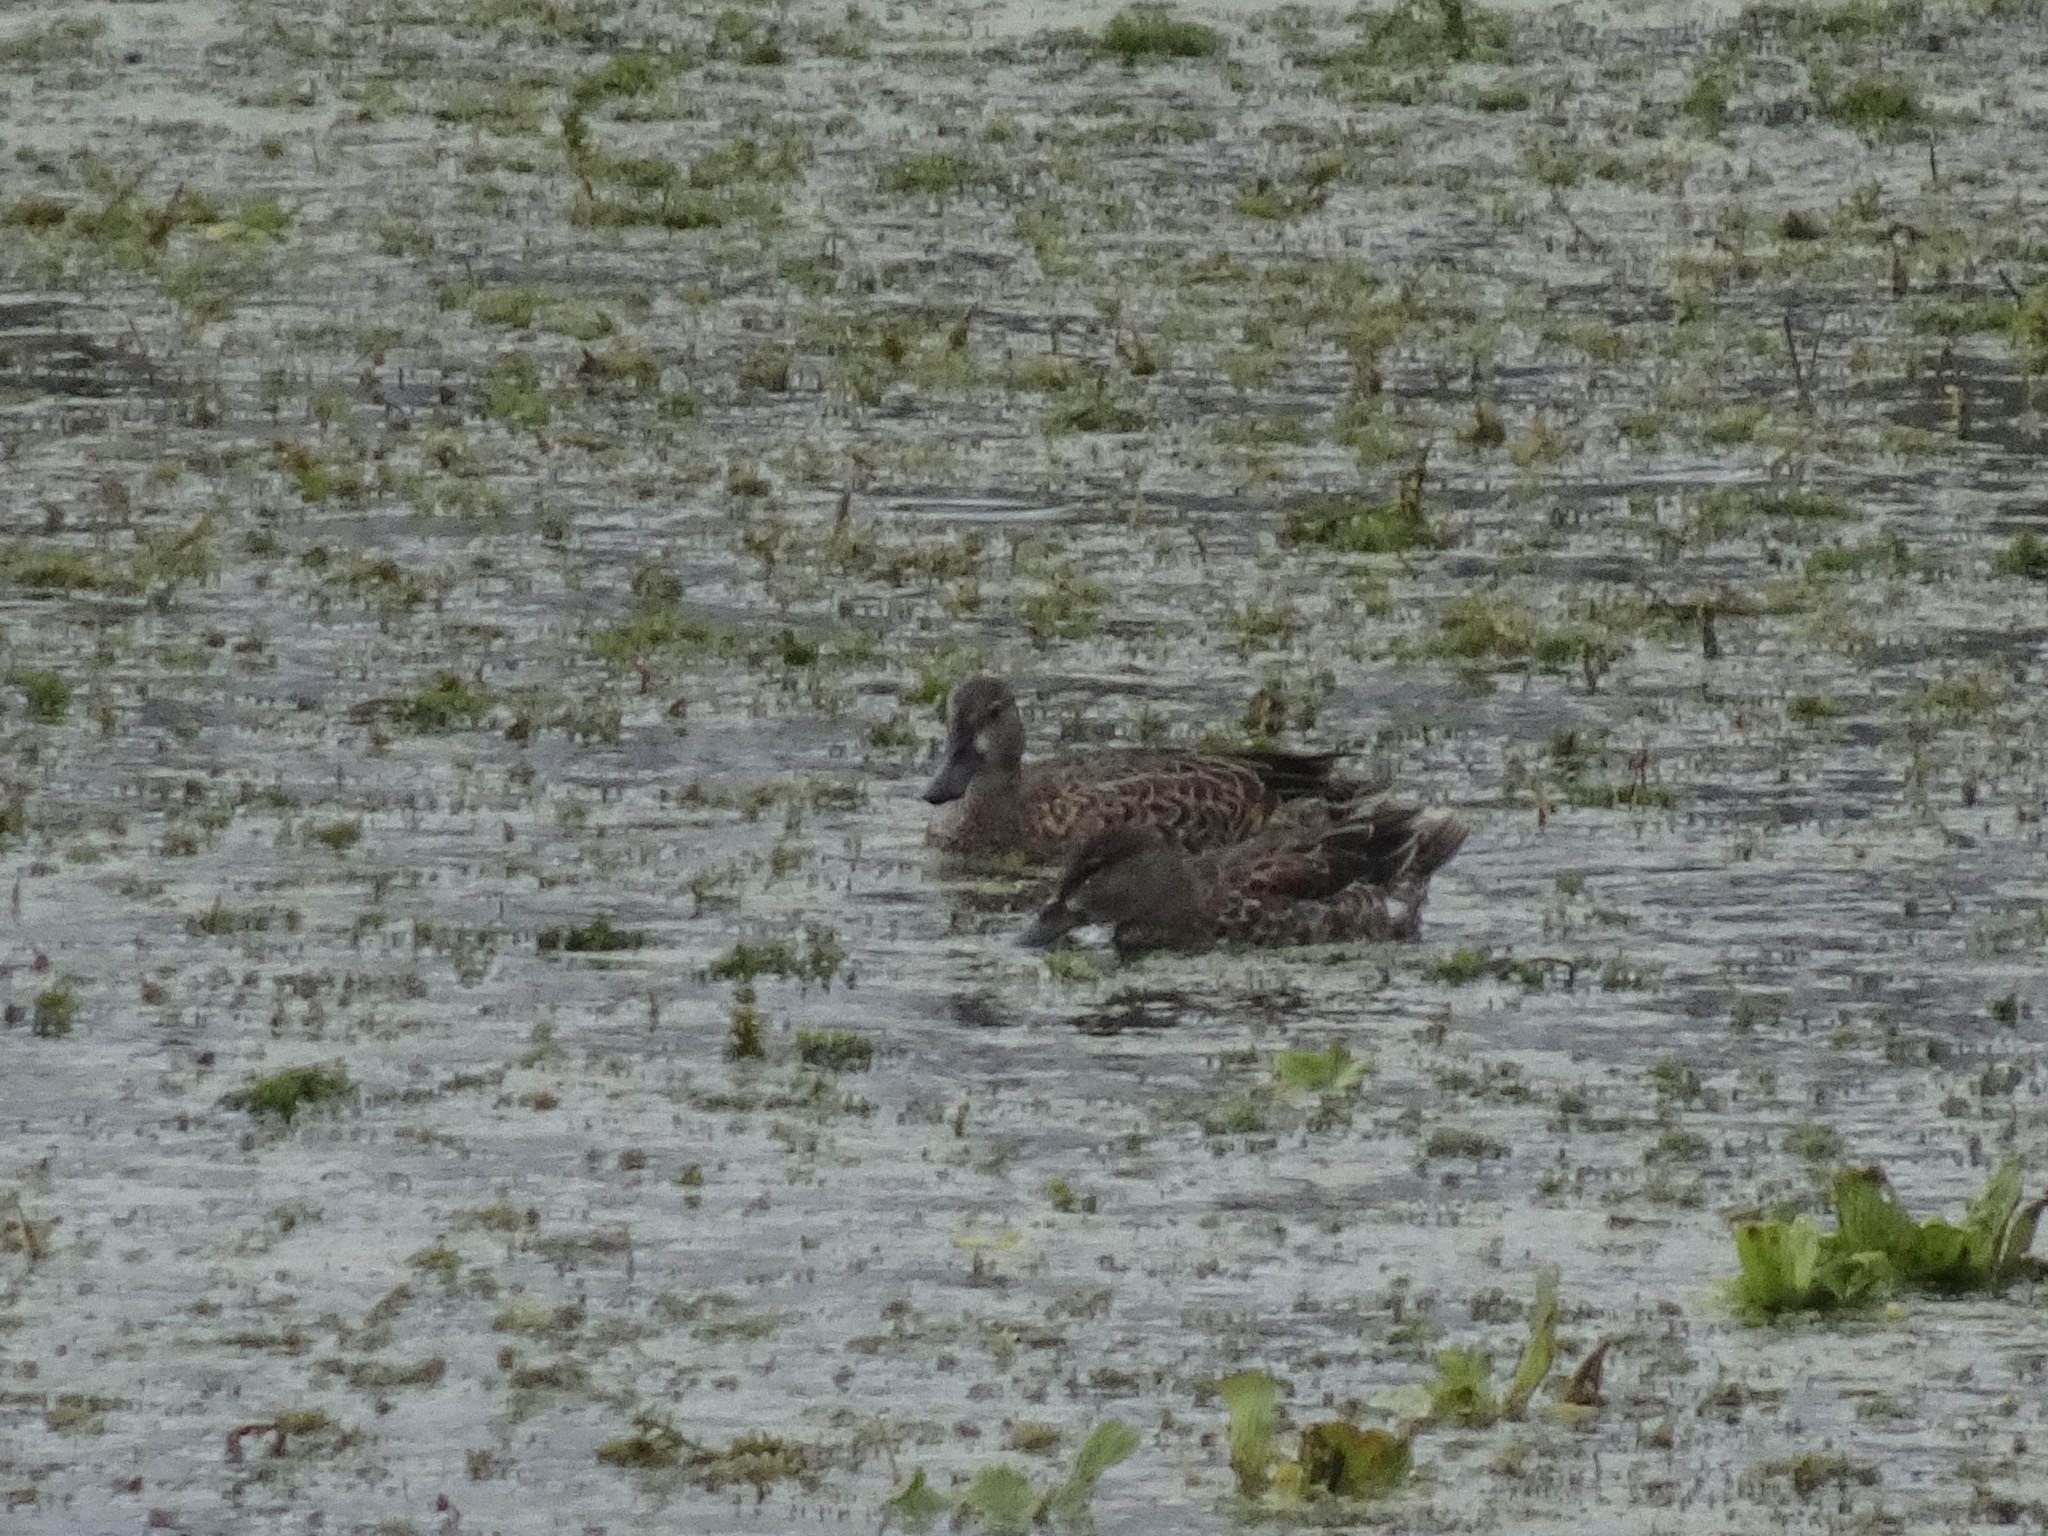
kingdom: Animalia
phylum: Chordata
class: Aves
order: Anseriformes
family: Anatidae
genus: Spatula
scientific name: Spatula discors
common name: Blue-winged teal
